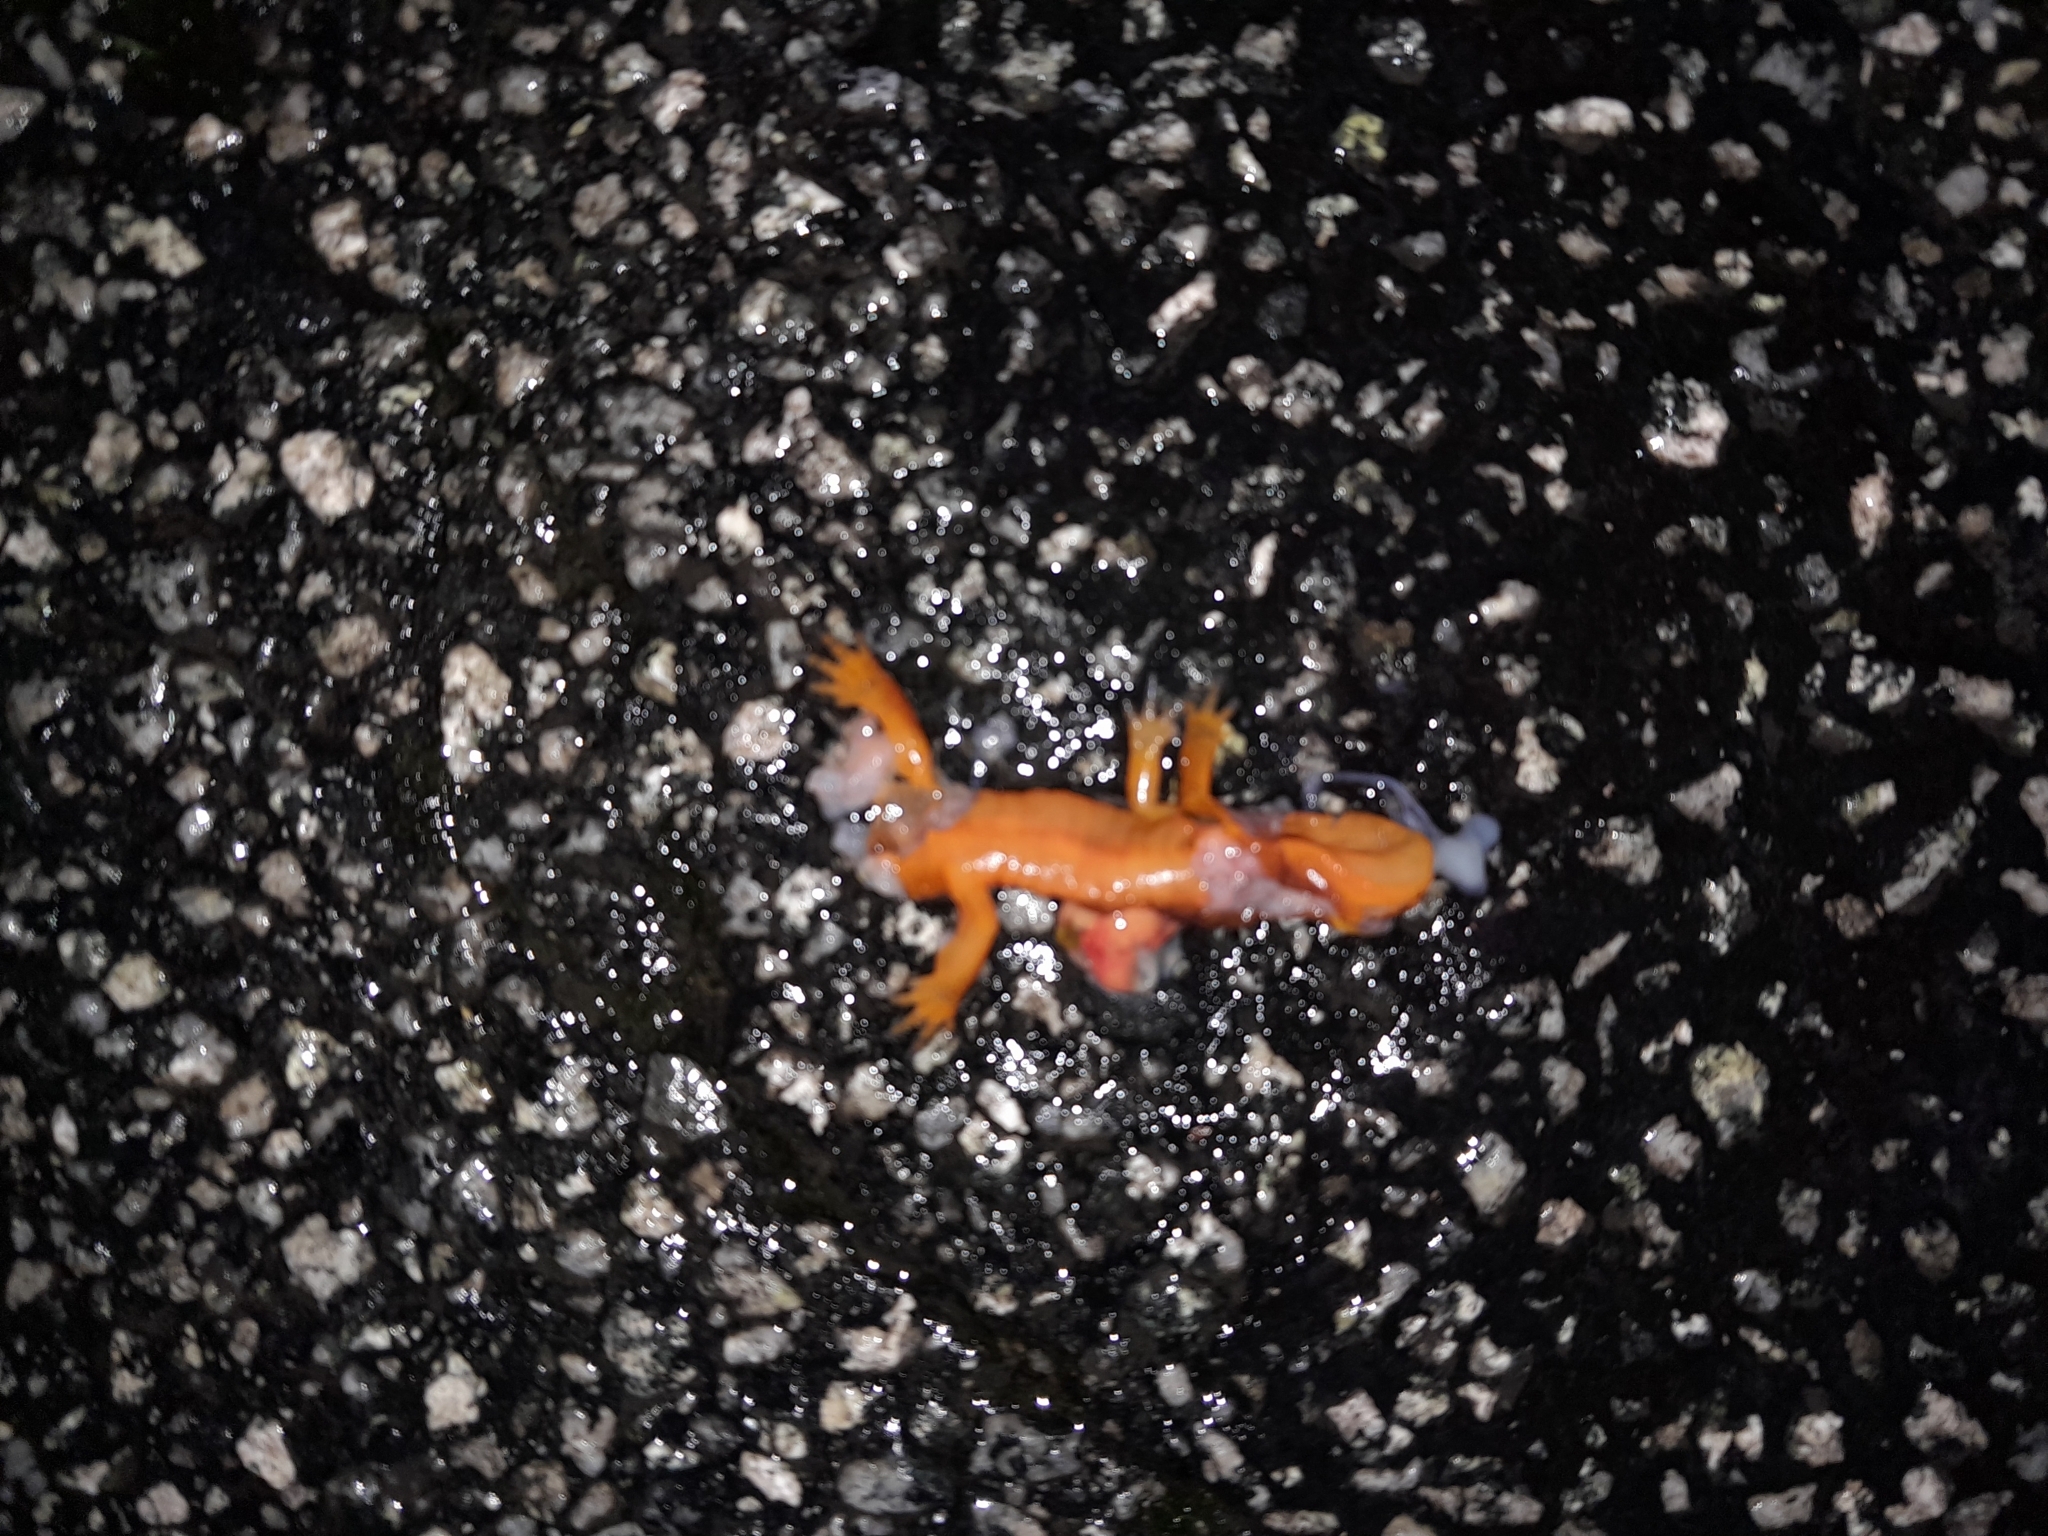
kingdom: Animalia
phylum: Chordata
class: Amphibia
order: Caudata
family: Plethodontidae
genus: Ensatina
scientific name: Ensatina eschscholtzii
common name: Ensatina
